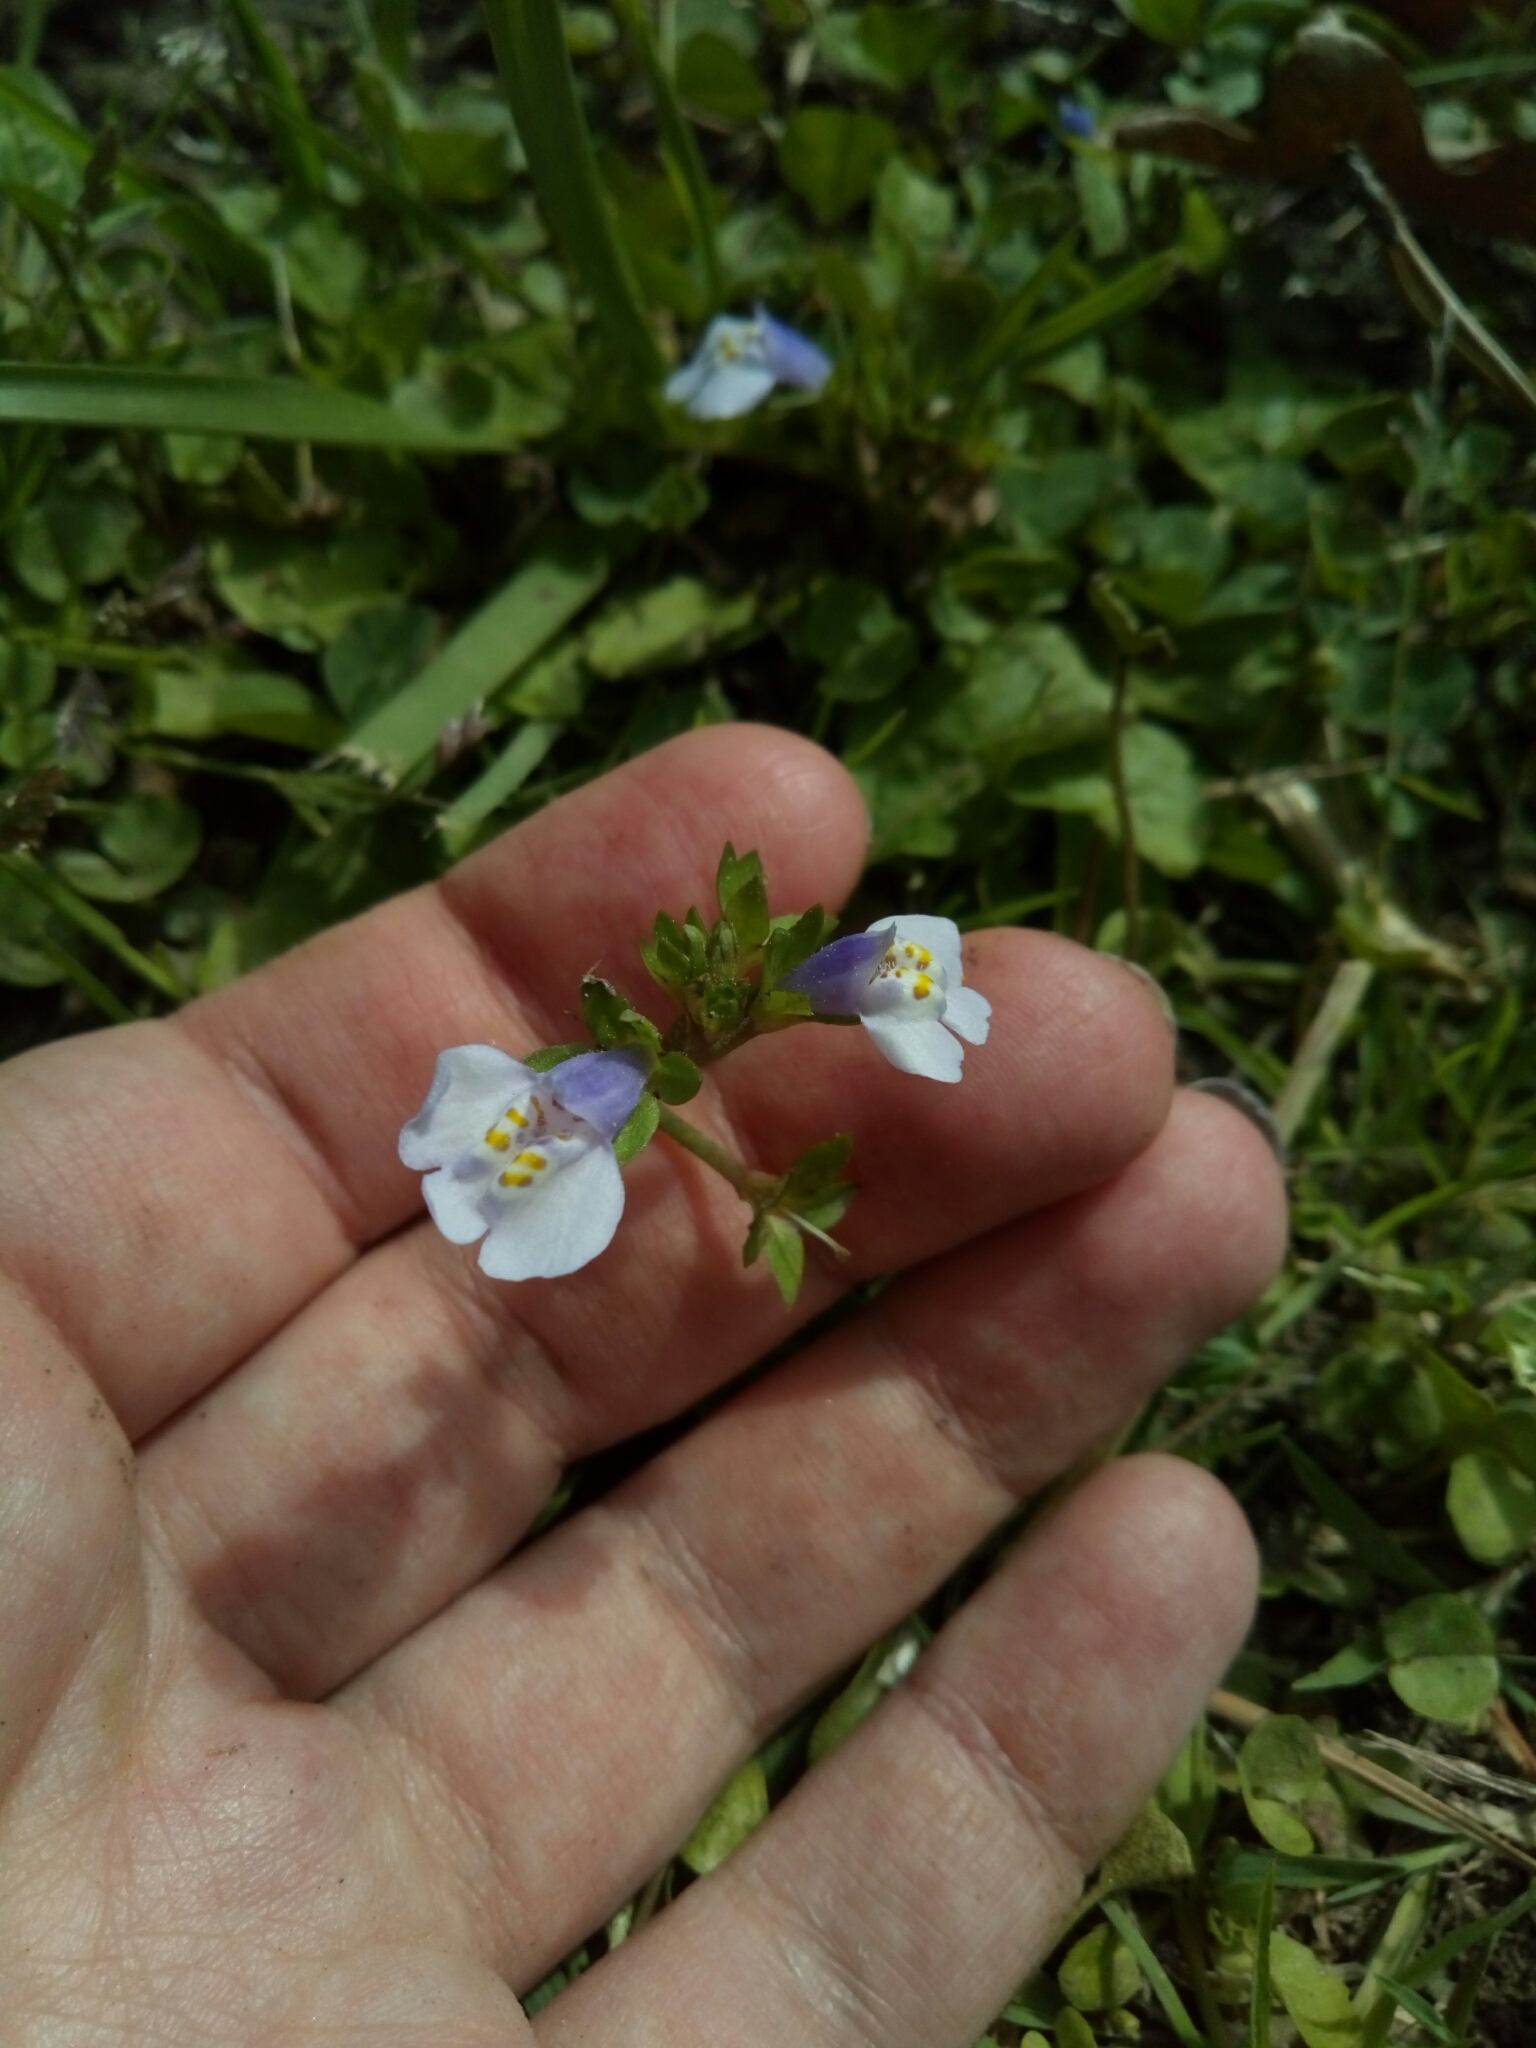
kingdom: Plantae
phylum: Tracheophyta
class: Magnoliopsida
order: Lamiales
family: Mazaceae
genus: Mazus
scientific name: Mazus pumilus
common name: Japanese mazus
